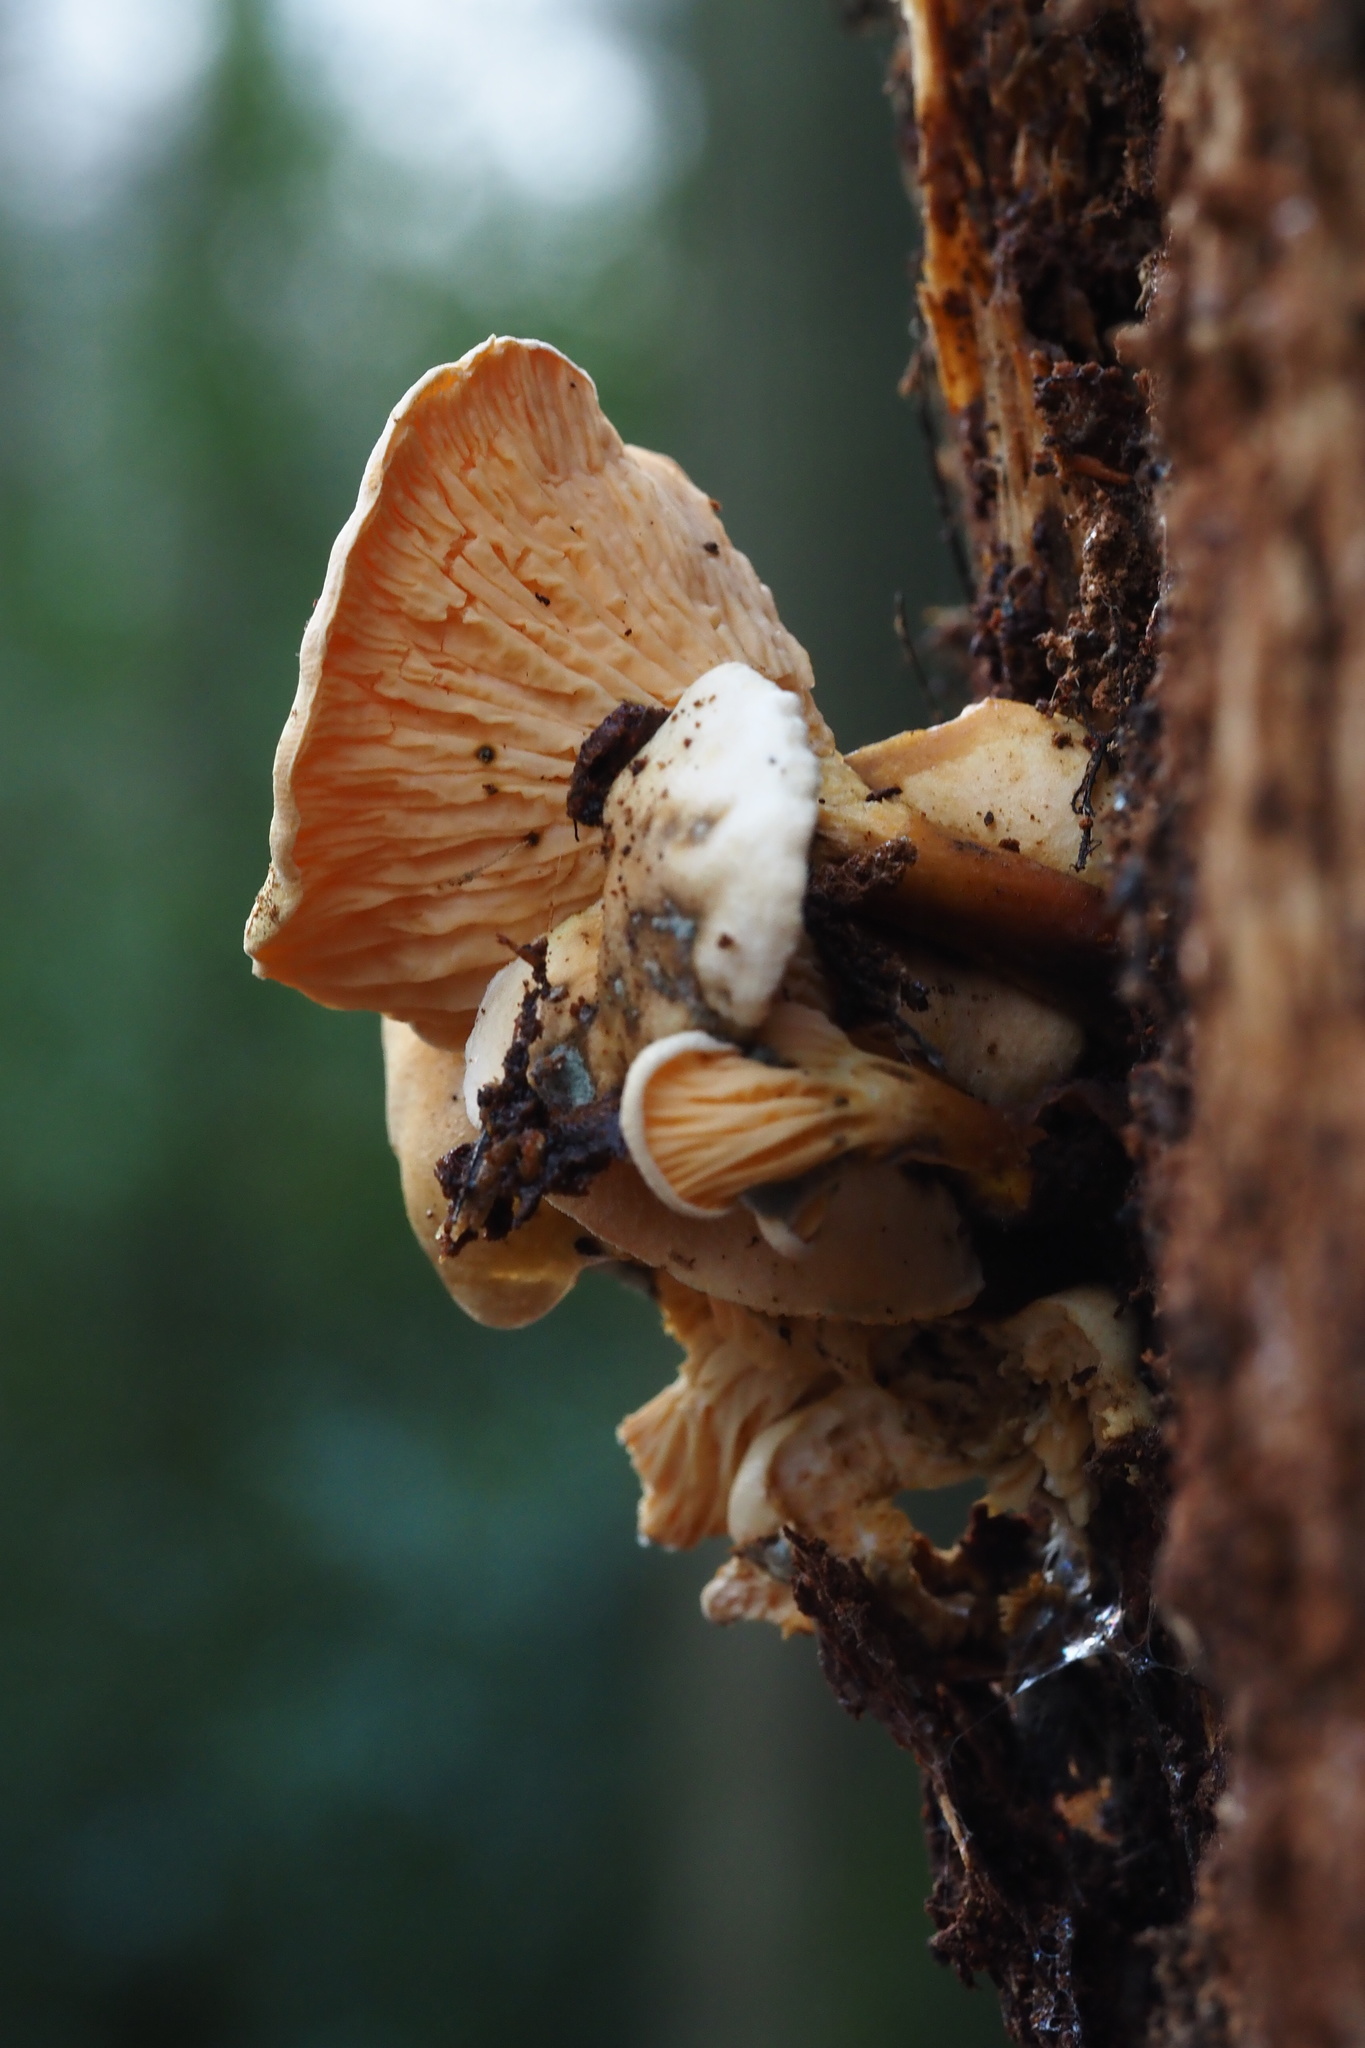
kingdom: Fungi
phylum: Basidiomycota
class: Agaricomycetes
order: Boletales
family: Hygrophoropsidaceae
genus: Hygrophoropsis
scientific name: Hygrophoropsis aurantiaca
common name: False chanterelle
